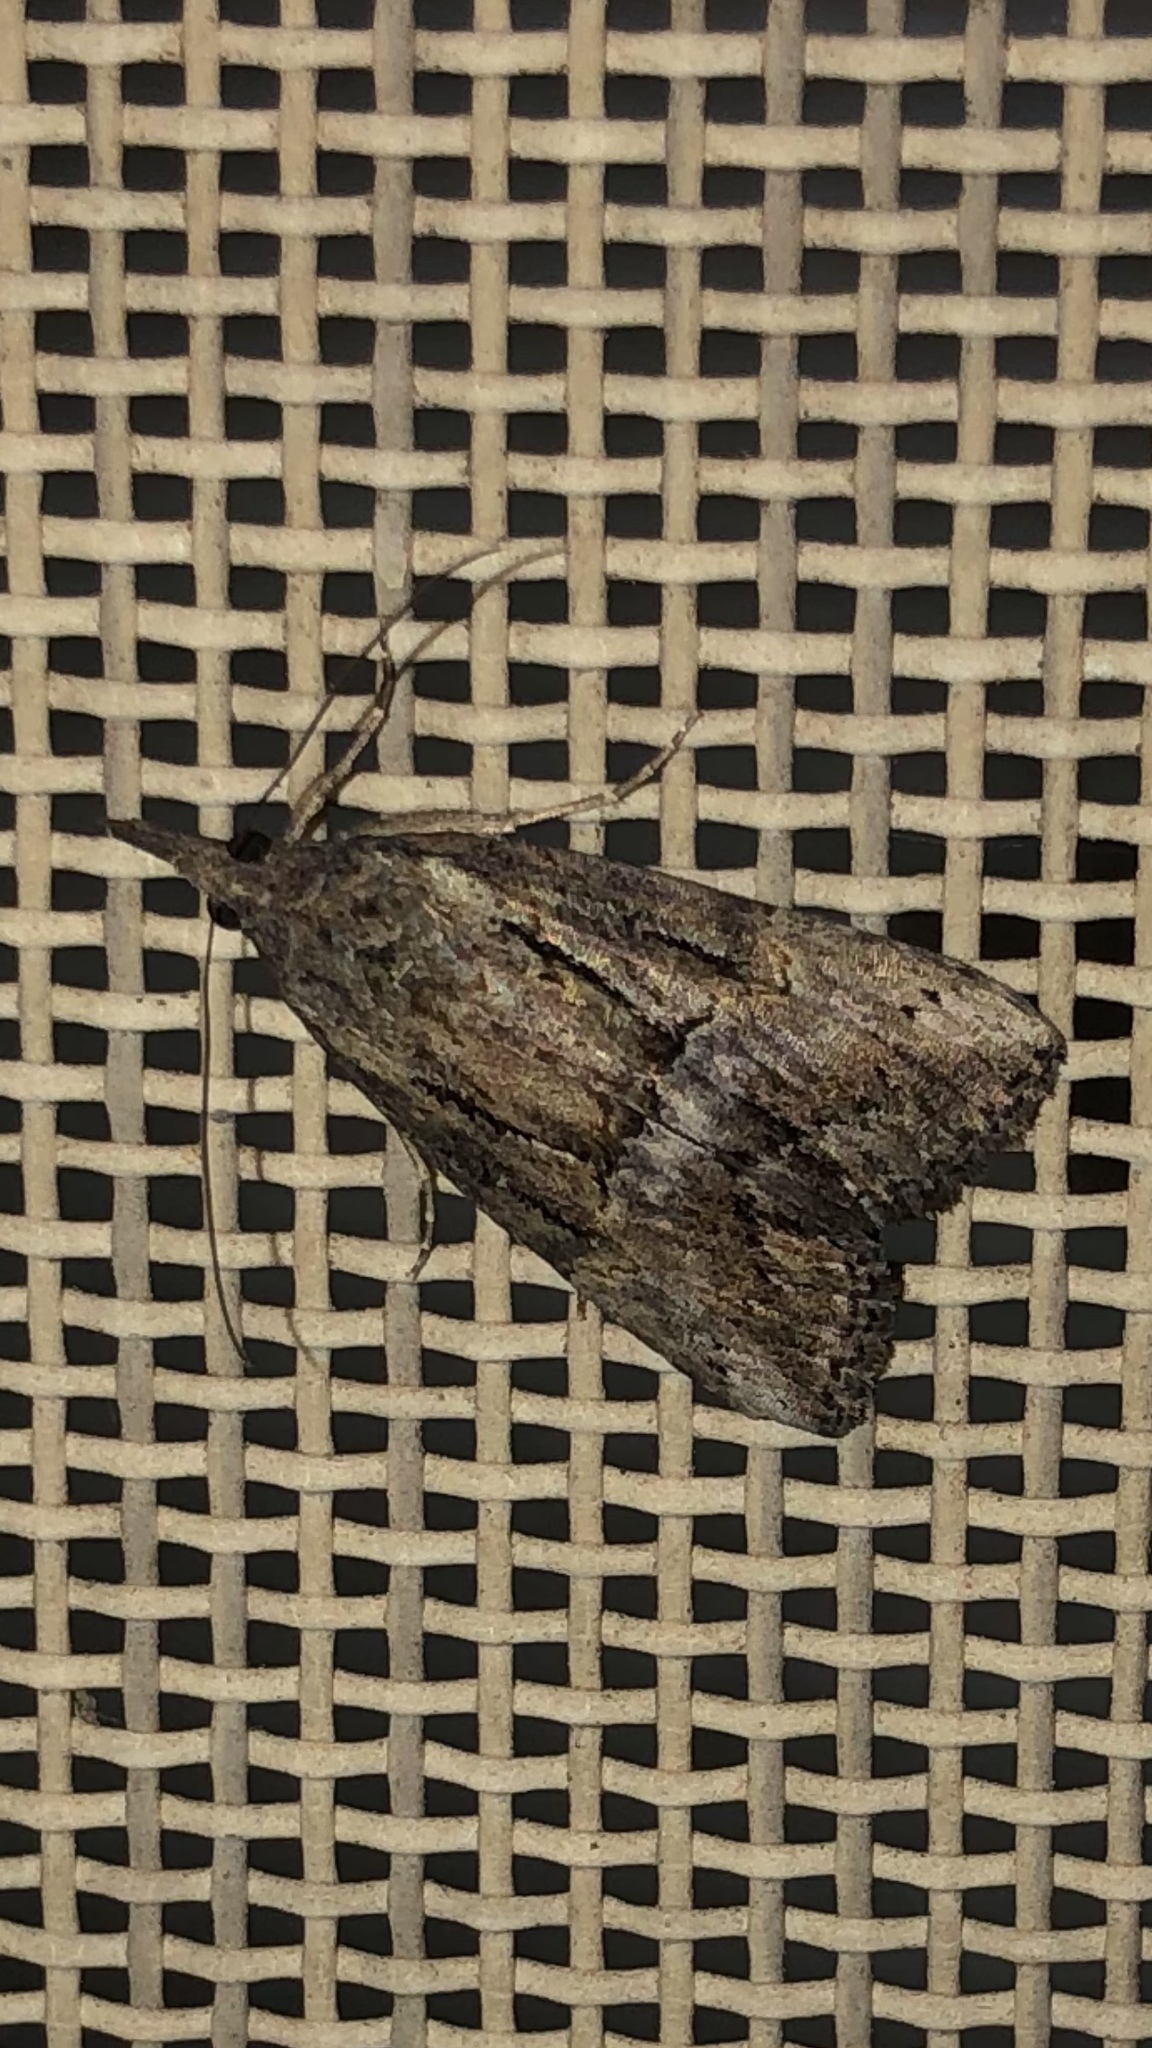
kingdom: Animalia
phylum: Arthropoda
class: Insecta
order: Lepidoptera
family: Erebidae
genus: Hypena
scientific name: Hypena scabra
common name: Green cloverworm
